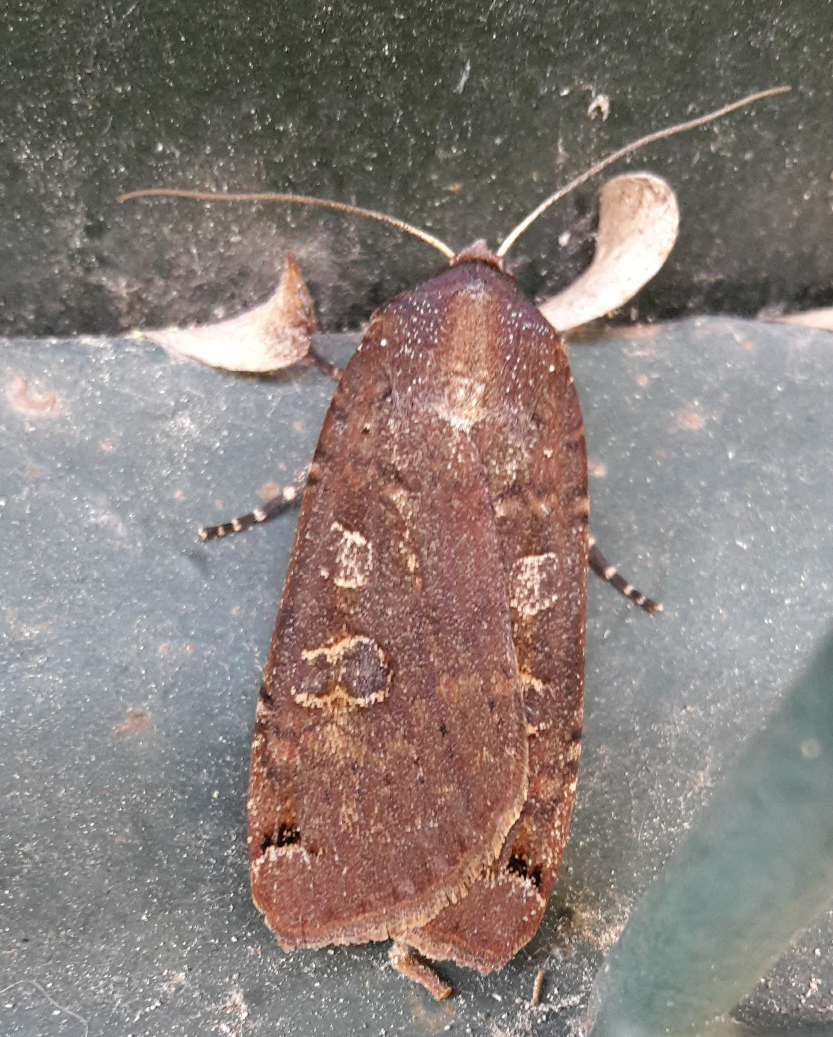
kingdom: Animalia
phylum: Arthropoda
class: Insecta
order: Lepidoptera
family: Noctuidae
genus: Noctua
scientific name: Noctua pronuba
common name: Large yellow underwing
